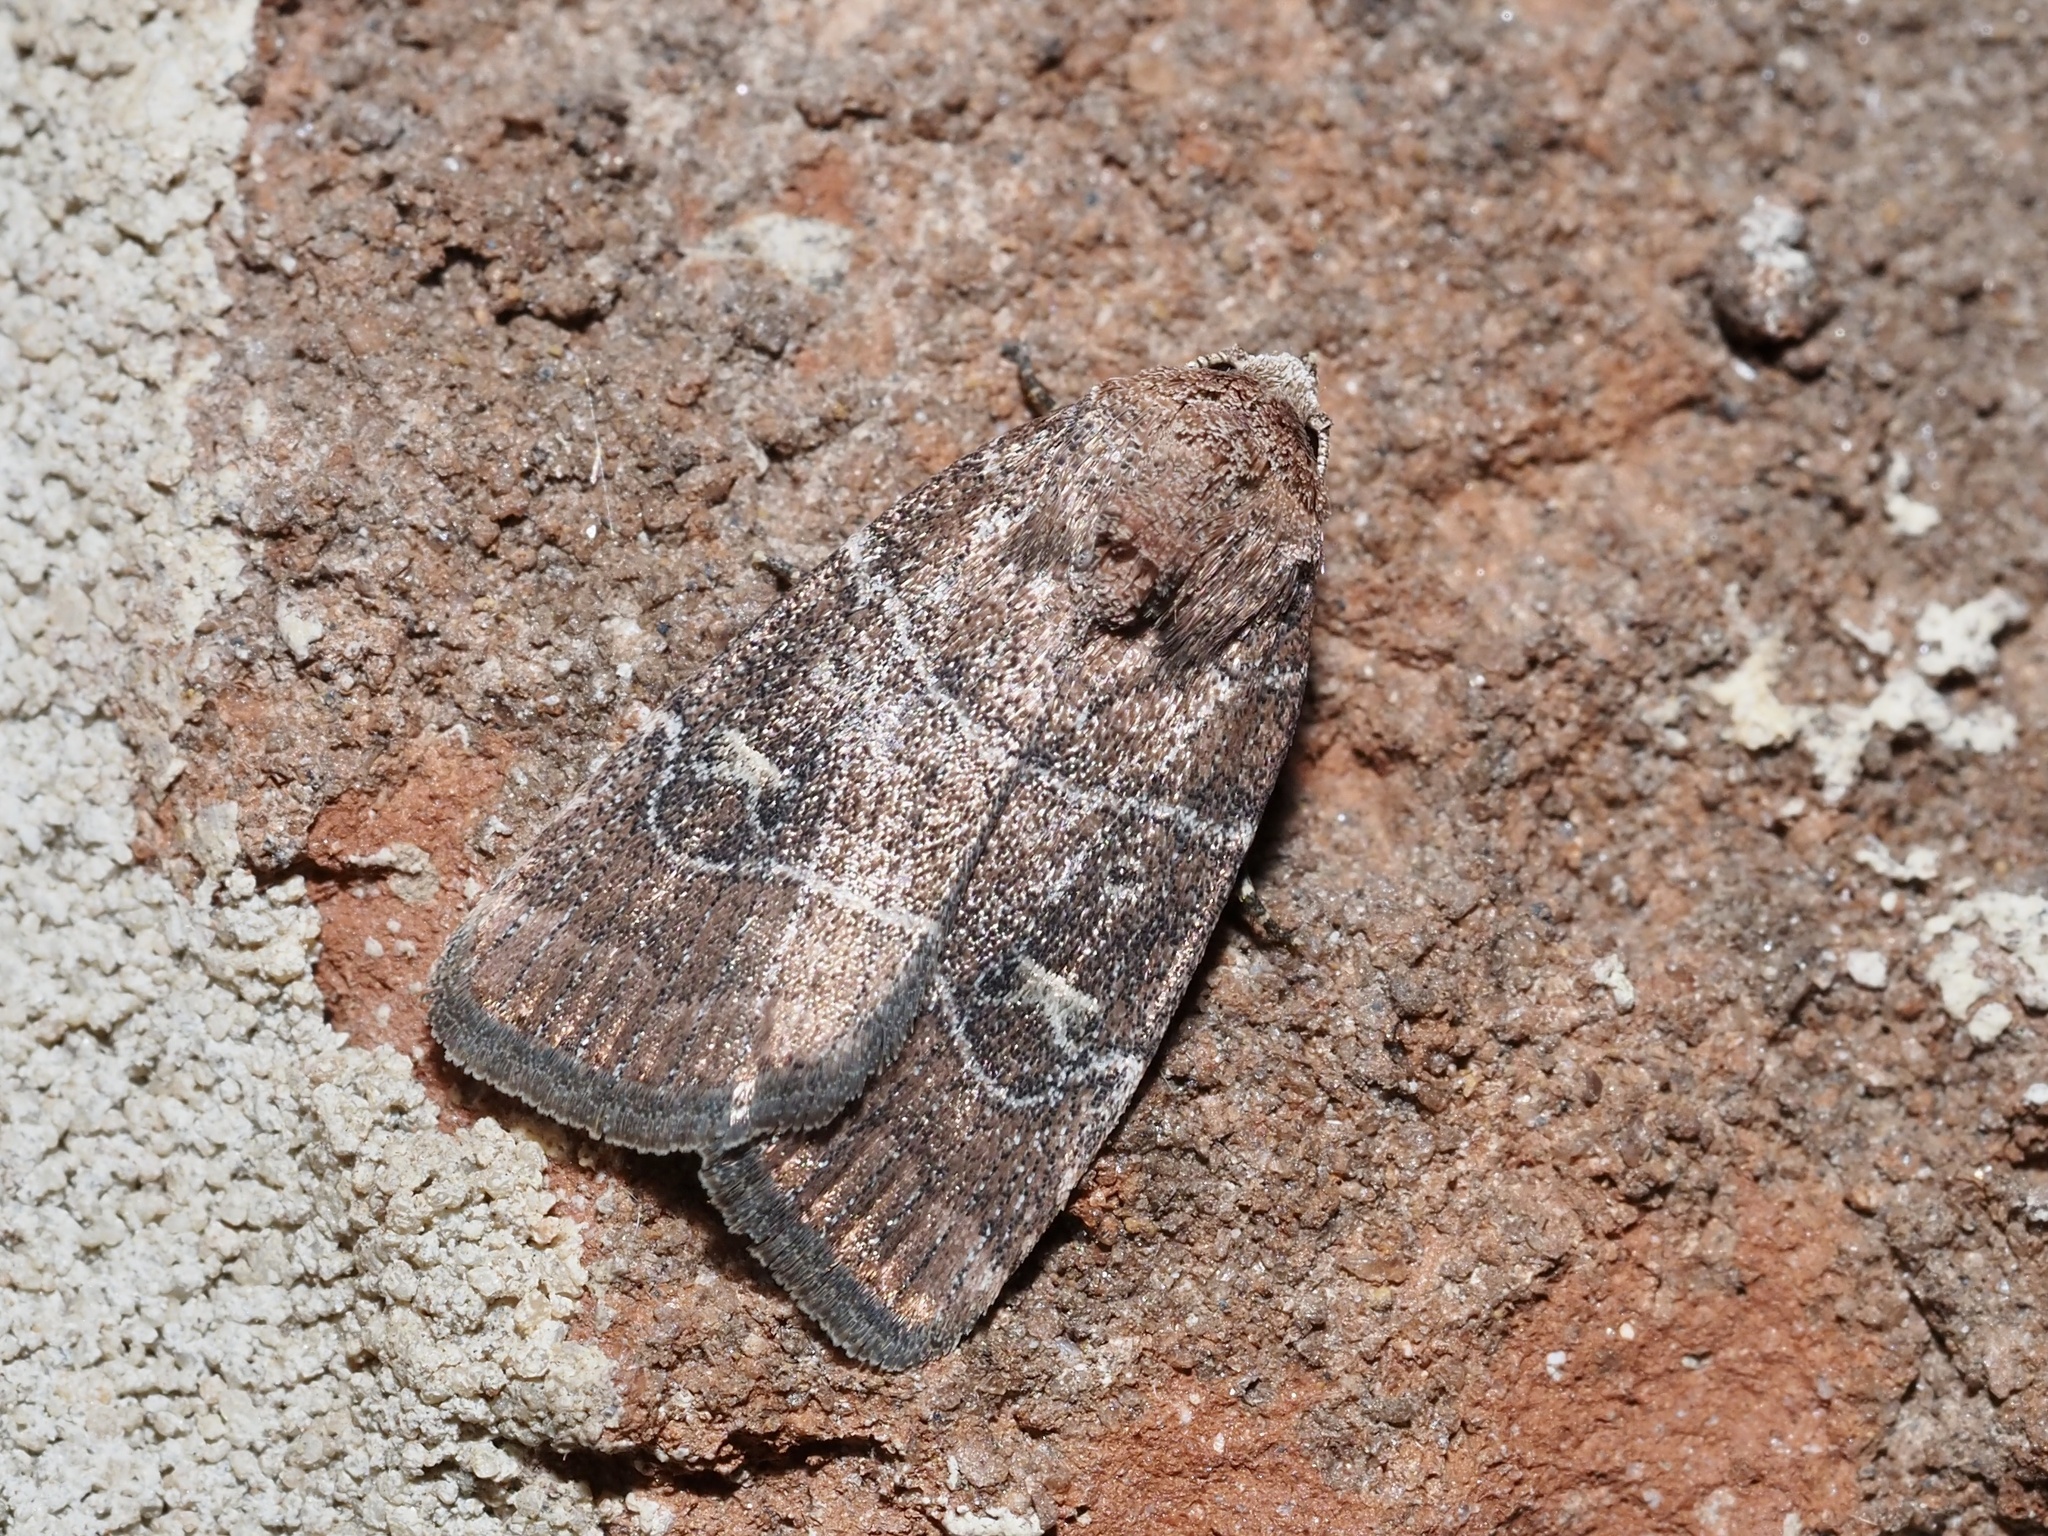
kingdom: Animalia
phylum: Arthropoda
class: Insecta
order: Lepidoptera
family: Noctuidae
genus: Elaphria
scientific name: Elaphria grata
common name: Grateful midget moth
